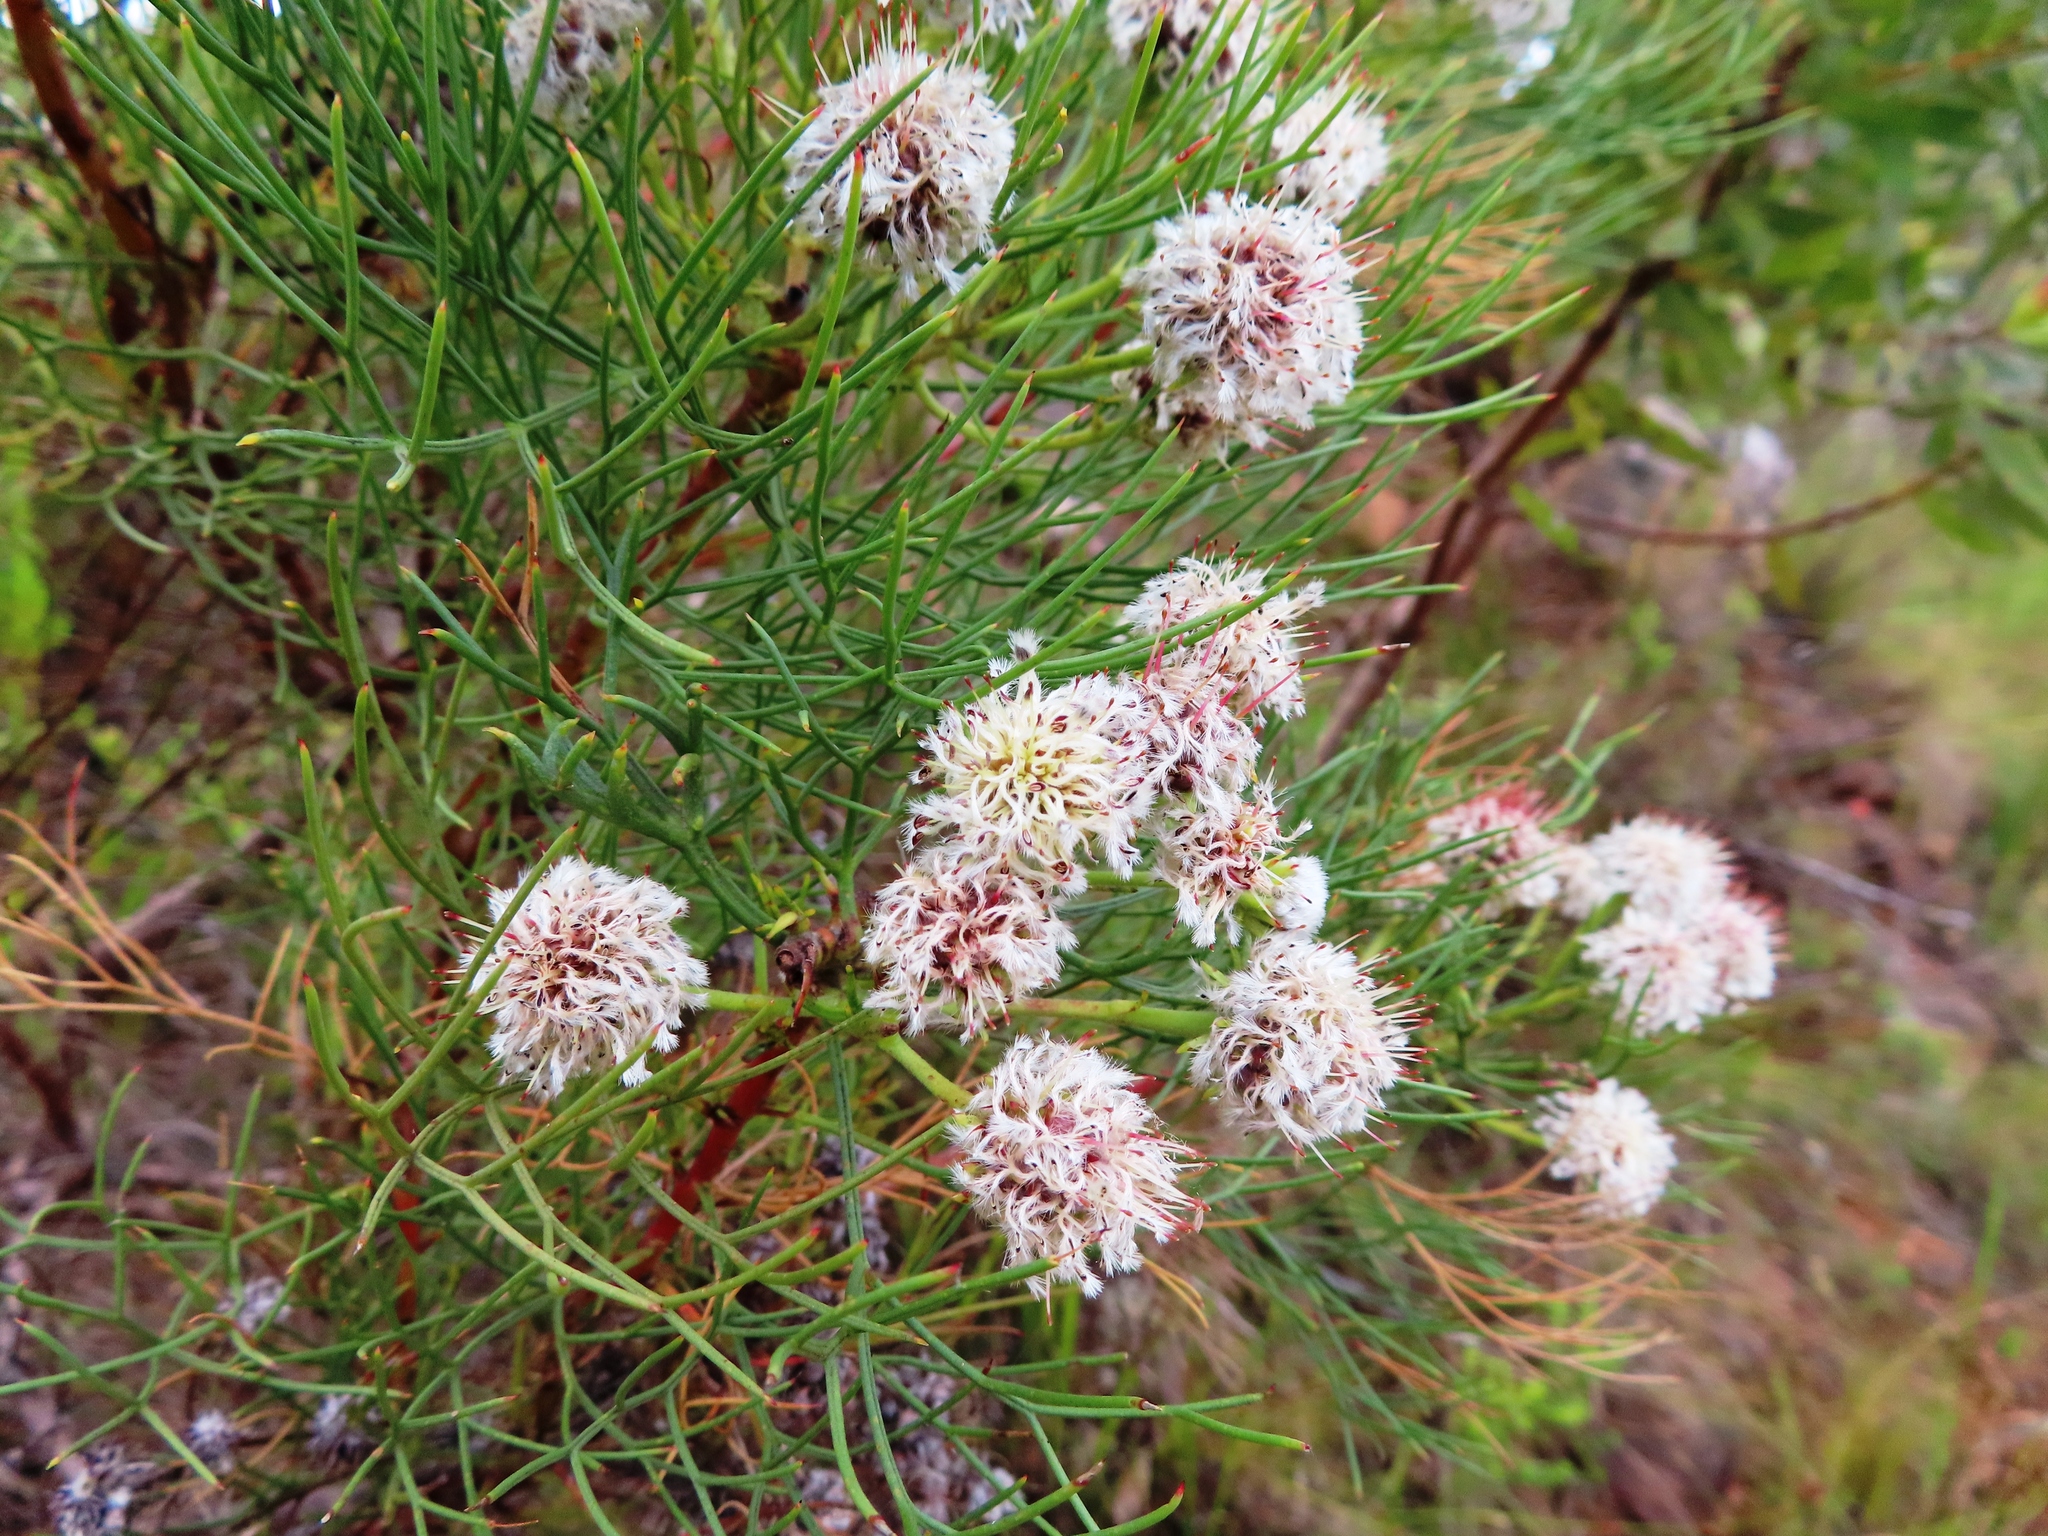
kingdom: Plantae
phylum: Tracheophyta
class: Magnoliopsida
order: Proteales
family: Proteaceae
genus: Serruria
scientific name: Serruria kraussii
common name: Snowball spiderhead
